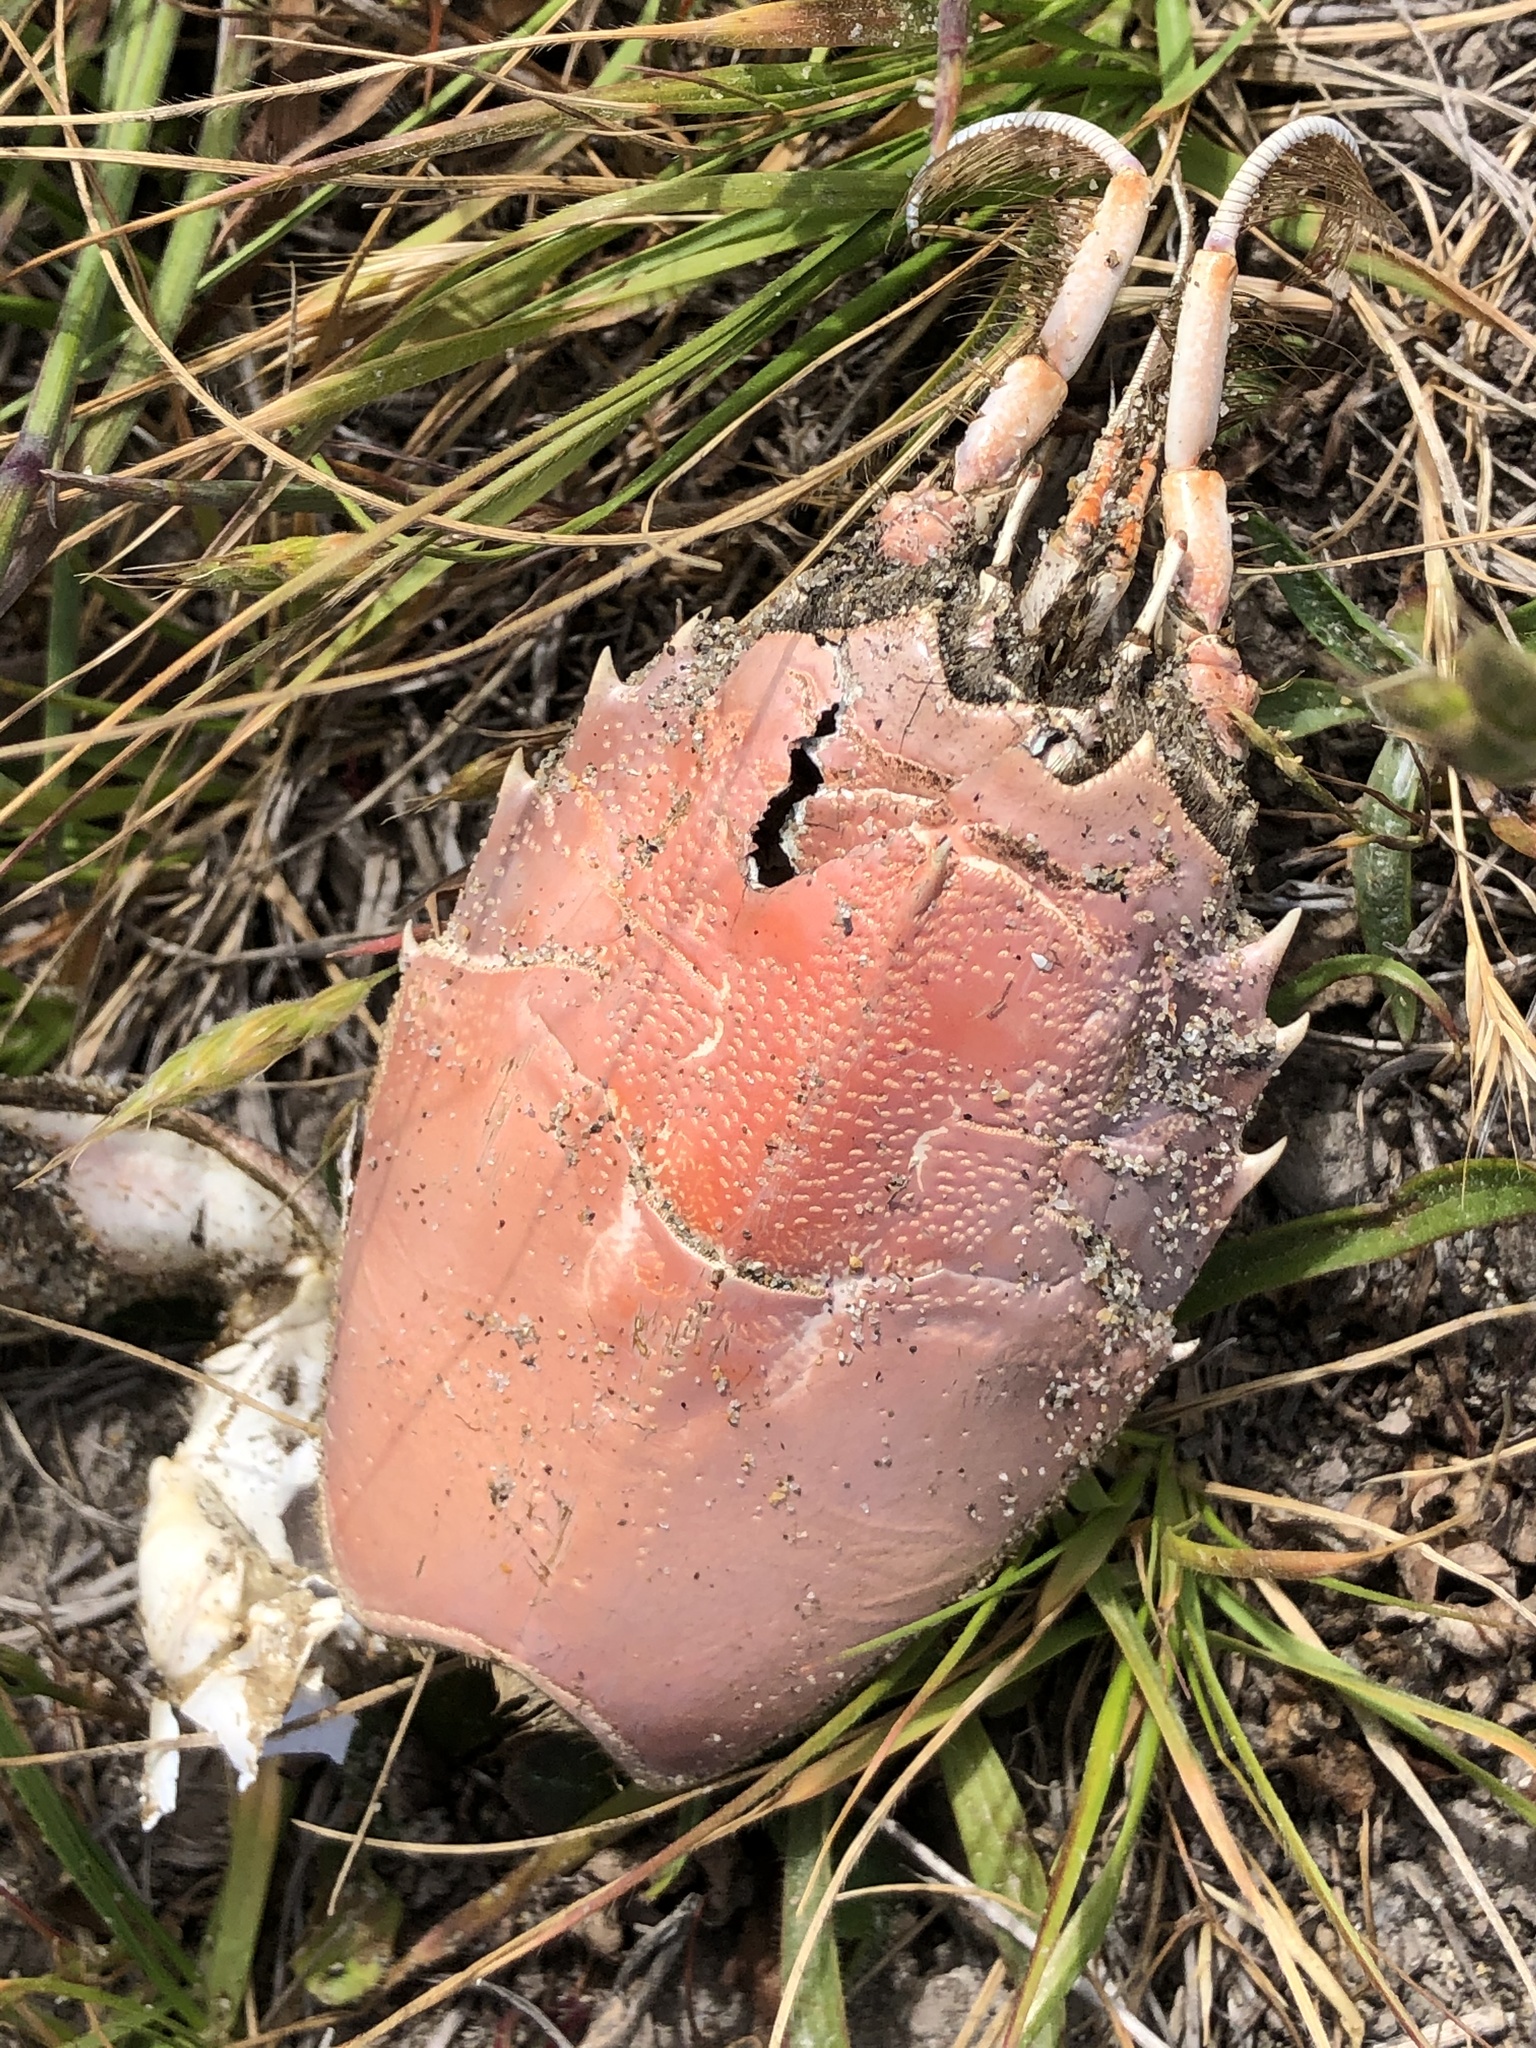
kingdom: Animalia
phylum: Arthropoda
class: Malacostraca
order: Decapoda
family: Blepharipodidae
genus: Blepharipoda
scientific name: Blepharipoda occidentalis
